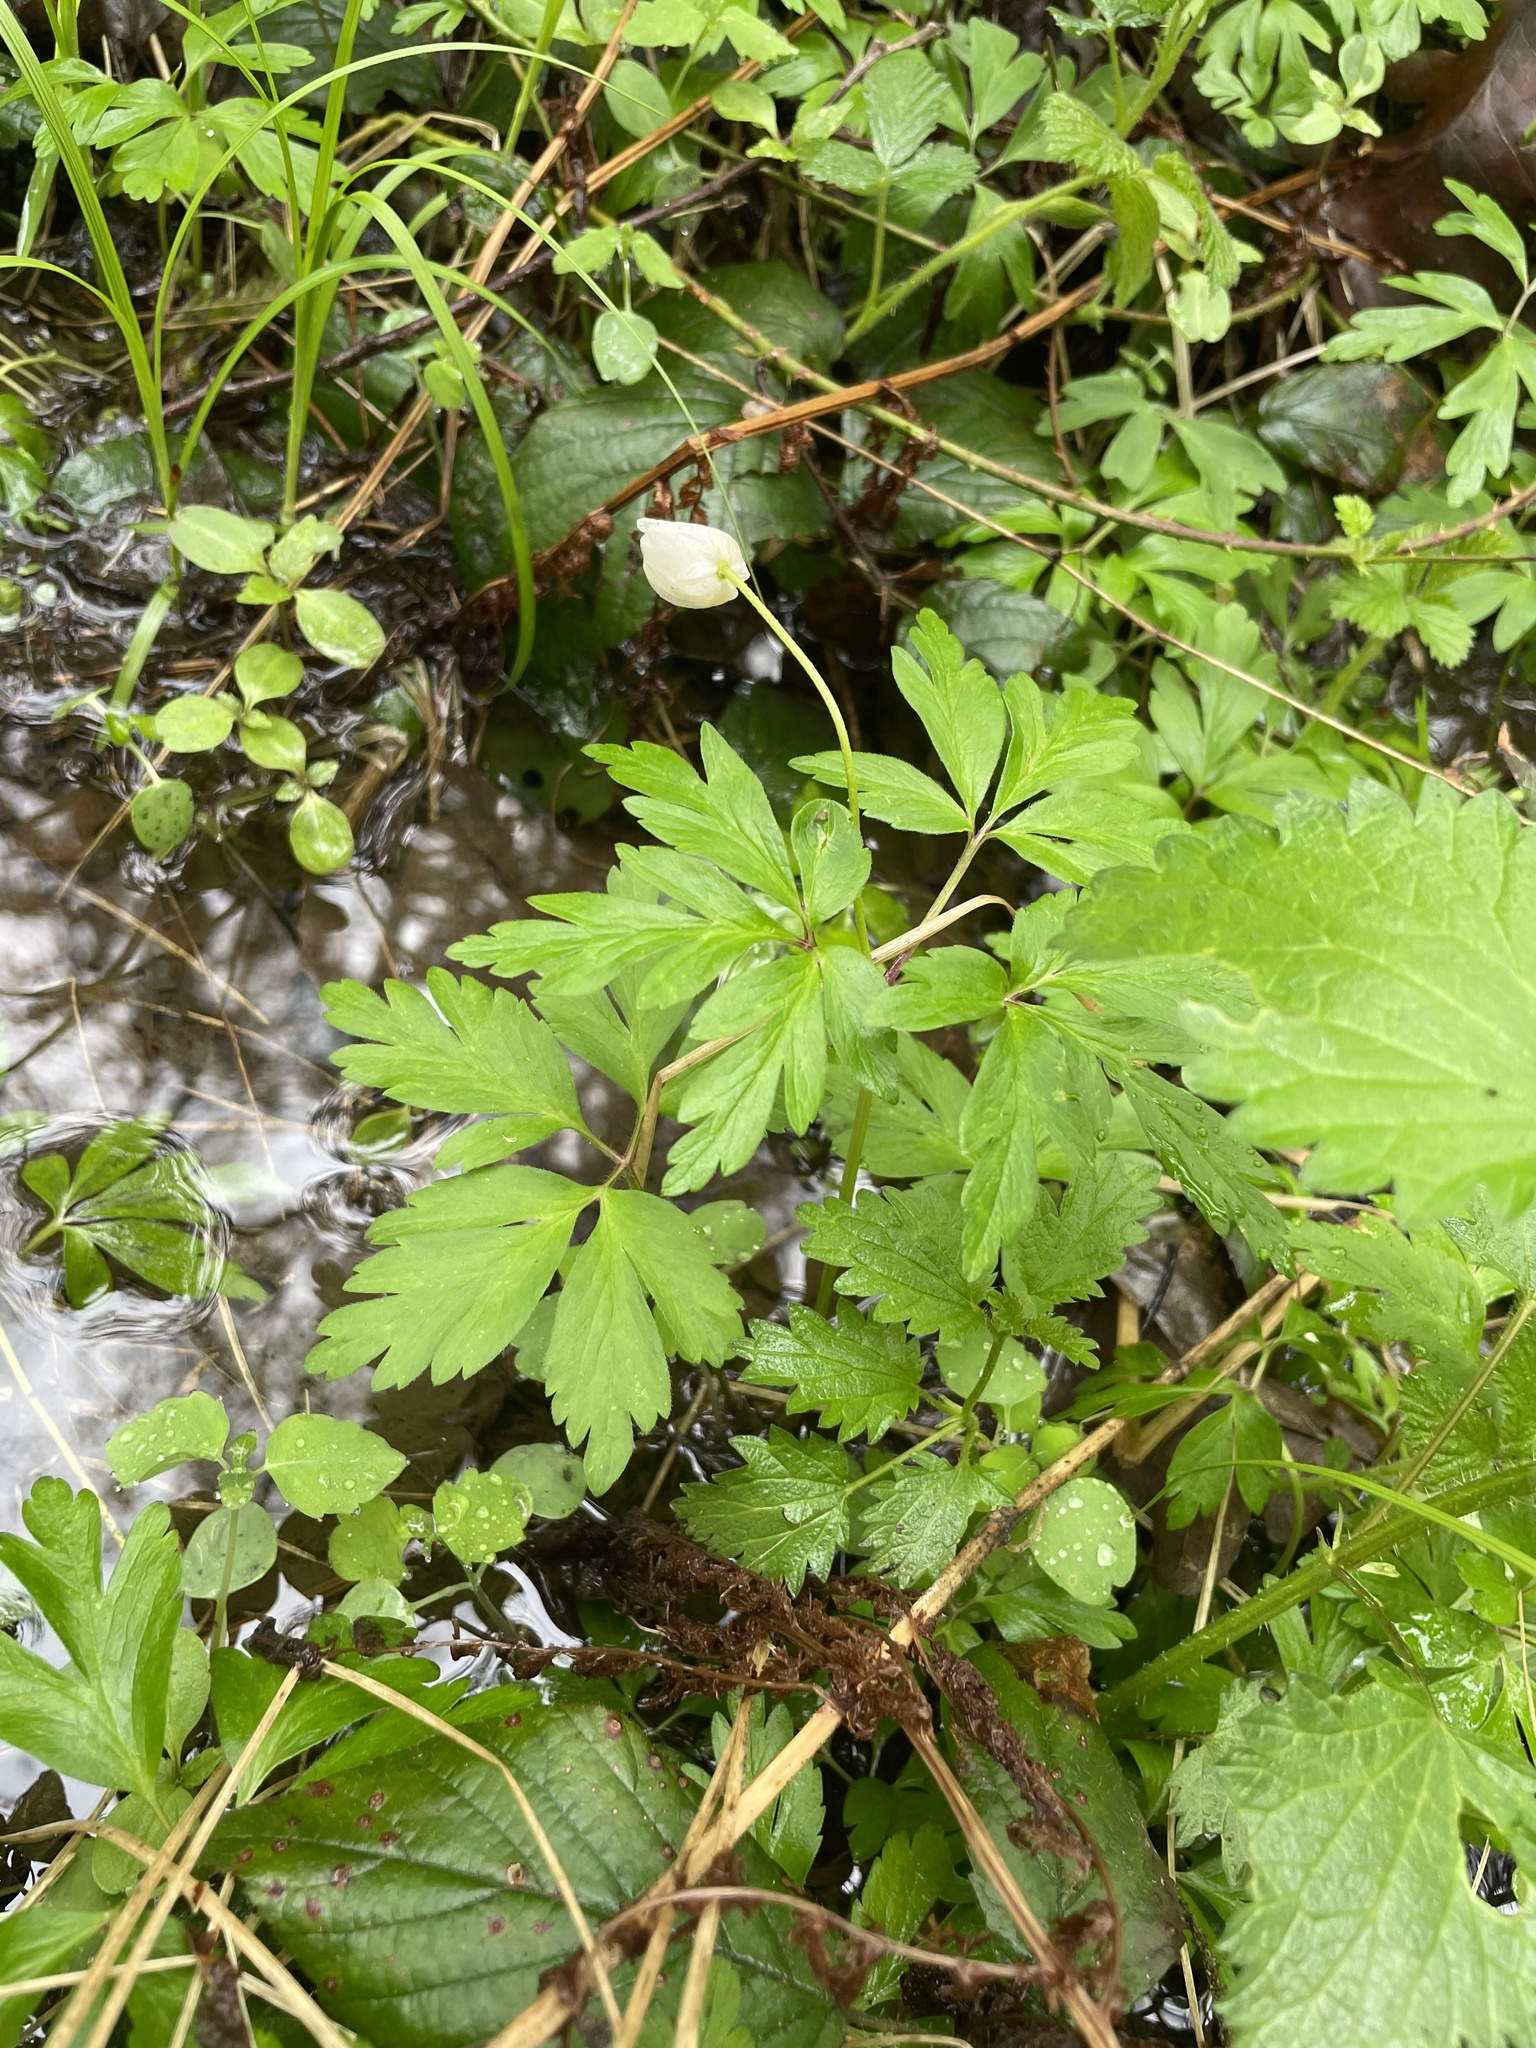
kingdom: Plantae
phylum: Tracheophyta
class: Magnoliopsida
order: Ranunculales
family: Ranunculaceae
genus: Anemone
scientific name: Anemone nemorosa
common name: Wood anemone
